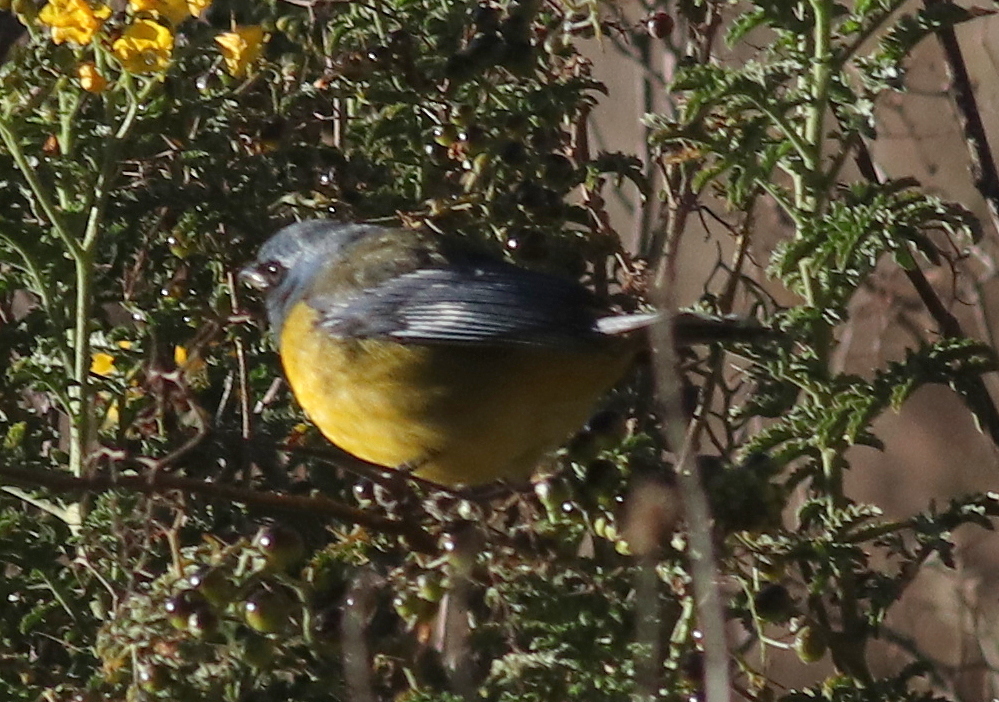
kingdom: Animalia
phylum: Chordata
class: Aves
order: Passeriformes
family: Thraupidae
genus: Rauenia
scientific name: Rauenia bonariensis
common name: Blue-and-yellow tanager
